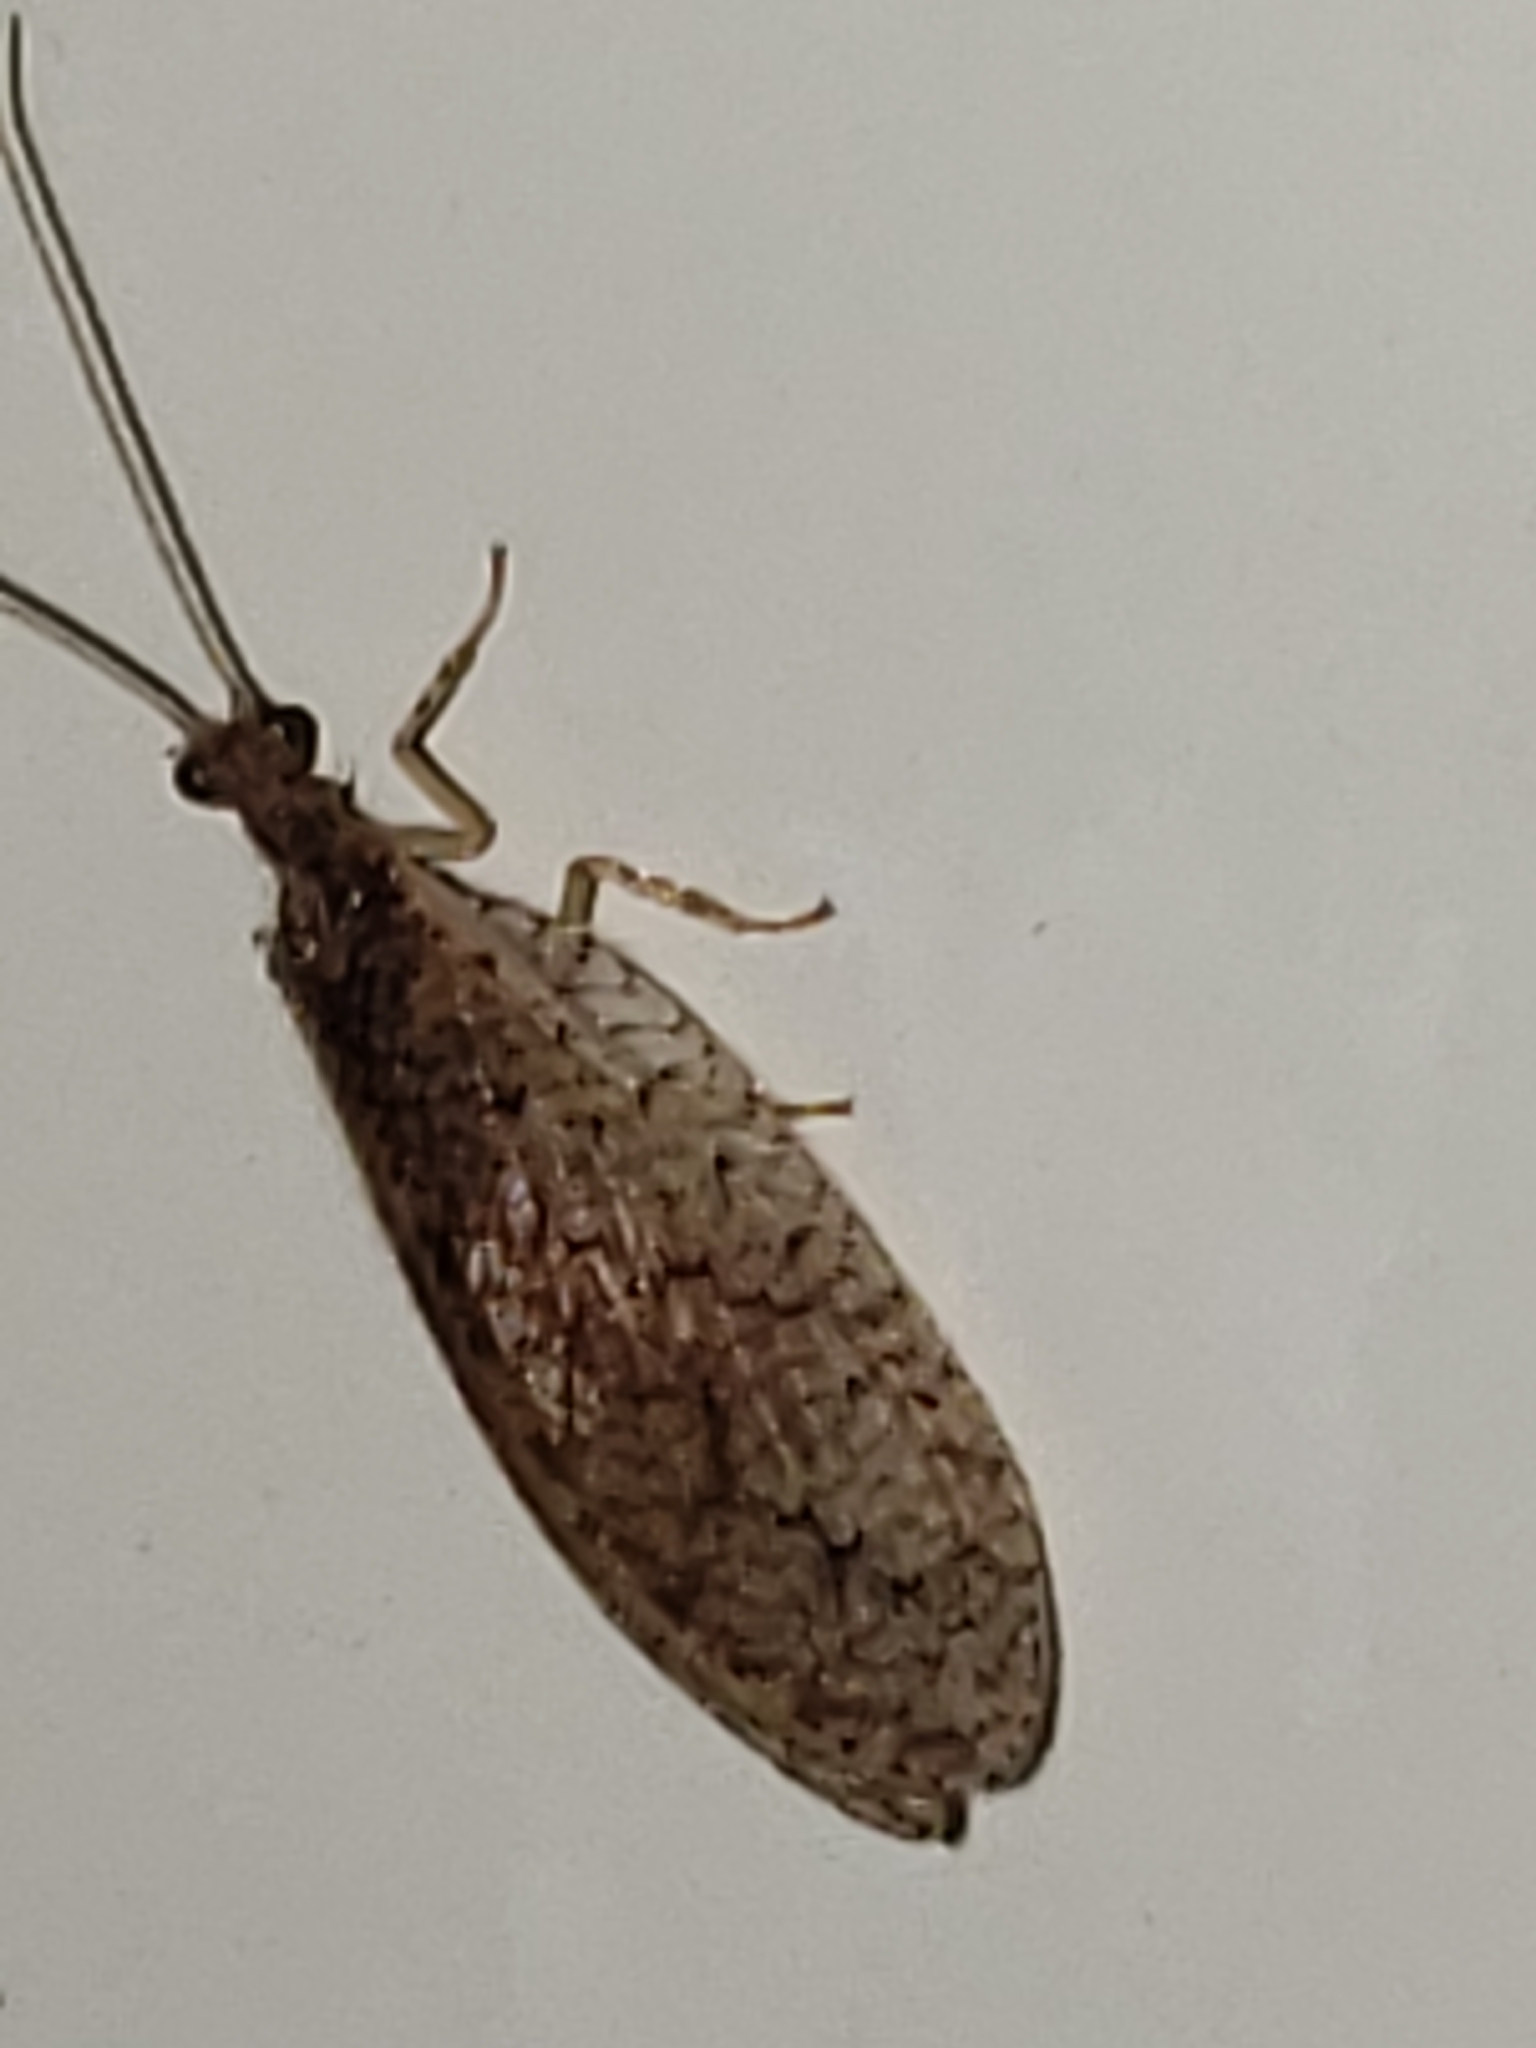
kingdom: Animalia
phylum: Arthropoda
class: Insecta
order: Neuroptera
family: Hemerobiidae
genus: Micromus
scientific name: Micromus posticus
